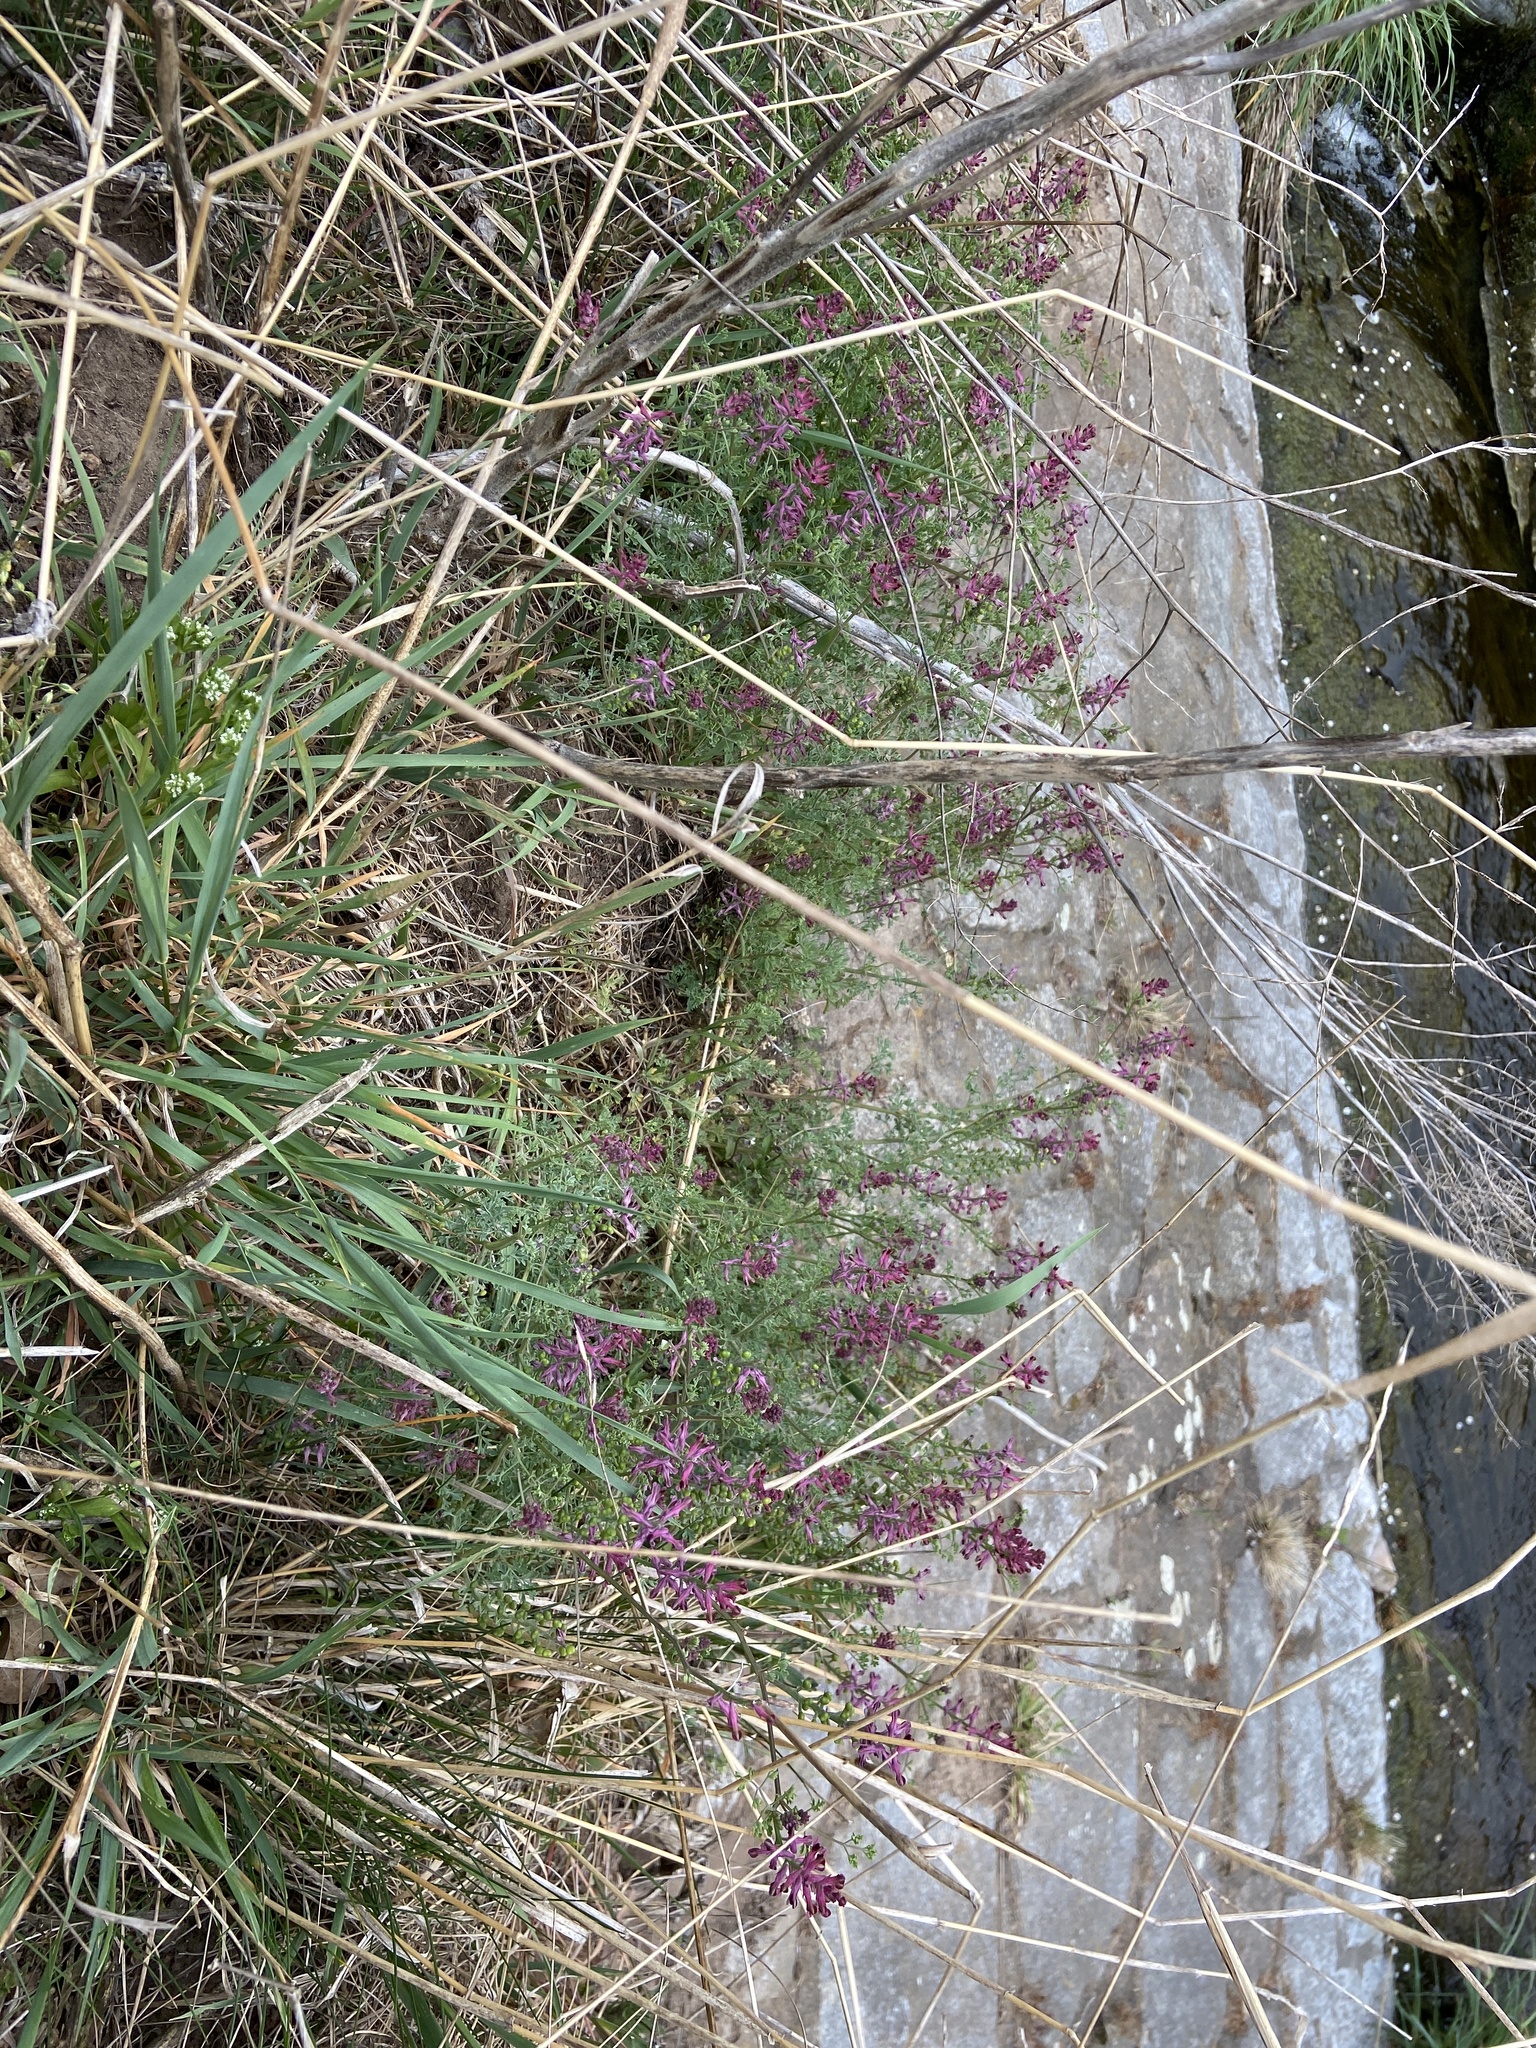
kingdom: Plantae
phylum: Tracheophyta
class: Magnoliopsida
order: Ranunculales
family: Papaveraceae
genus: Fumaria
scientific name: Fumaria officinalis
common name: Common fumitory
